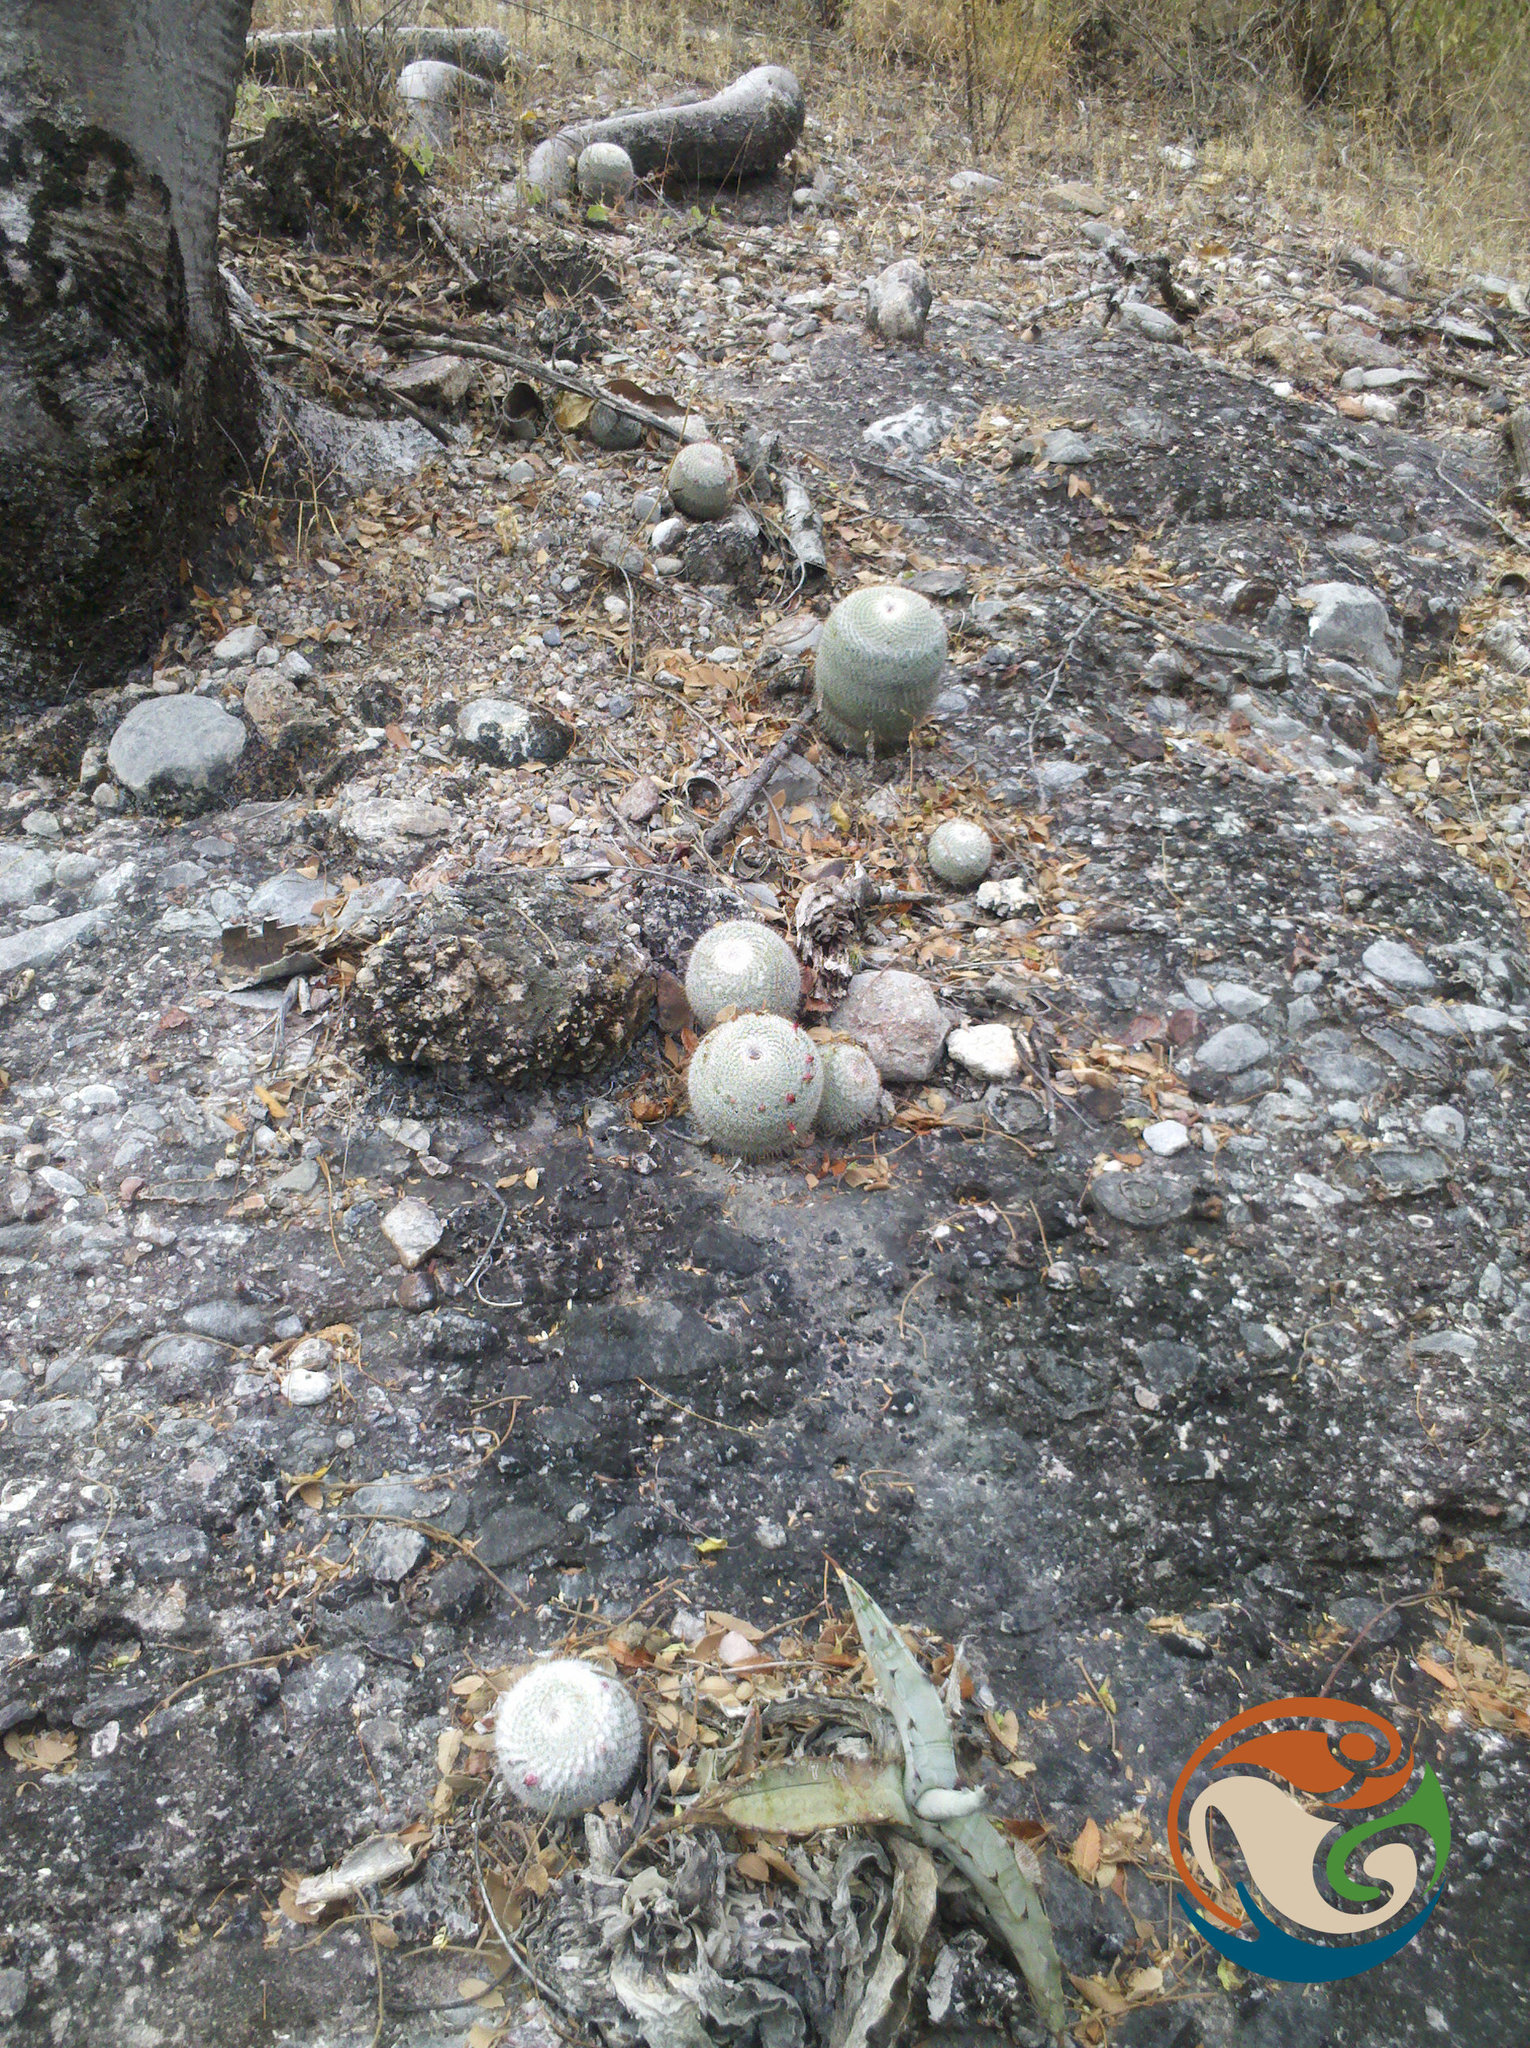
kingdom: Plantae
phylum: Tracheophyta
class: Magnoliopsida
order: Caryophyllales
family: Cactaceae
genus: Mammillaria
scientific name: Mammillaria albilanata
